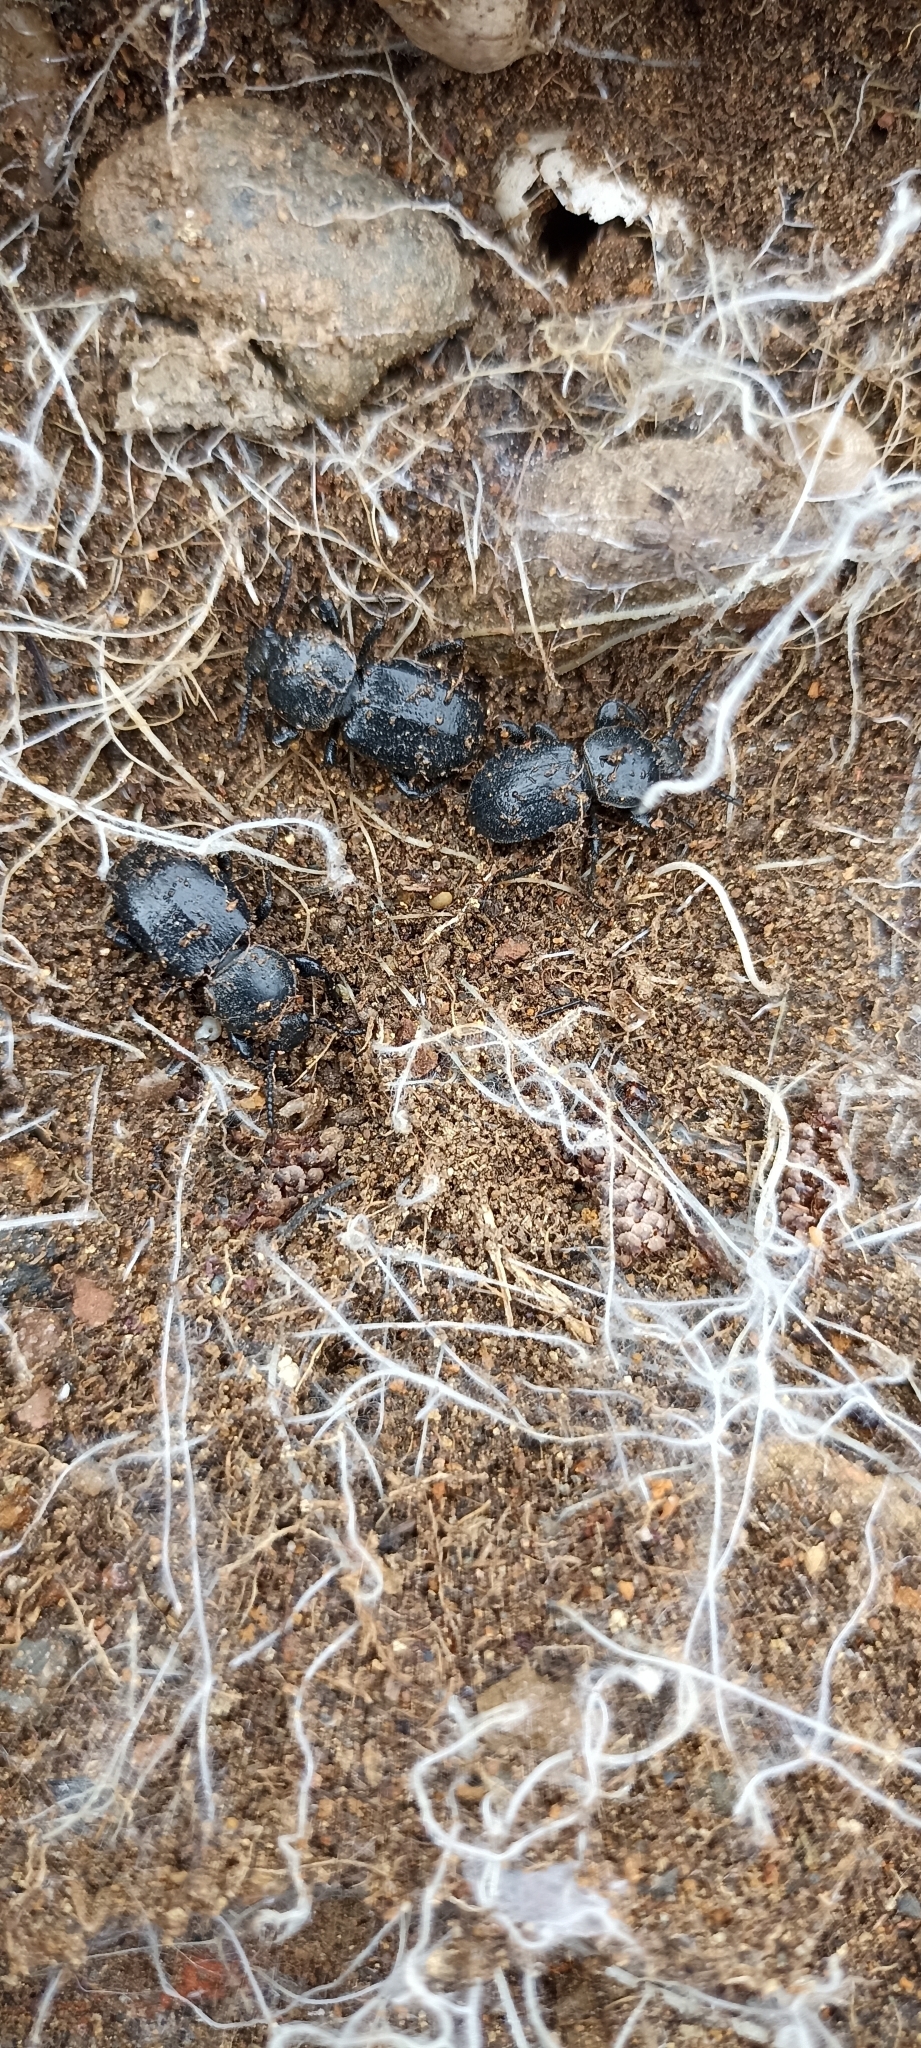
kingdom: Animalia
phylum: Arthropoda
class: Insecta
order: Coleoptera
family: Tenebrionidae
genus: Scaurus
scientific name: Scaurus atratus
